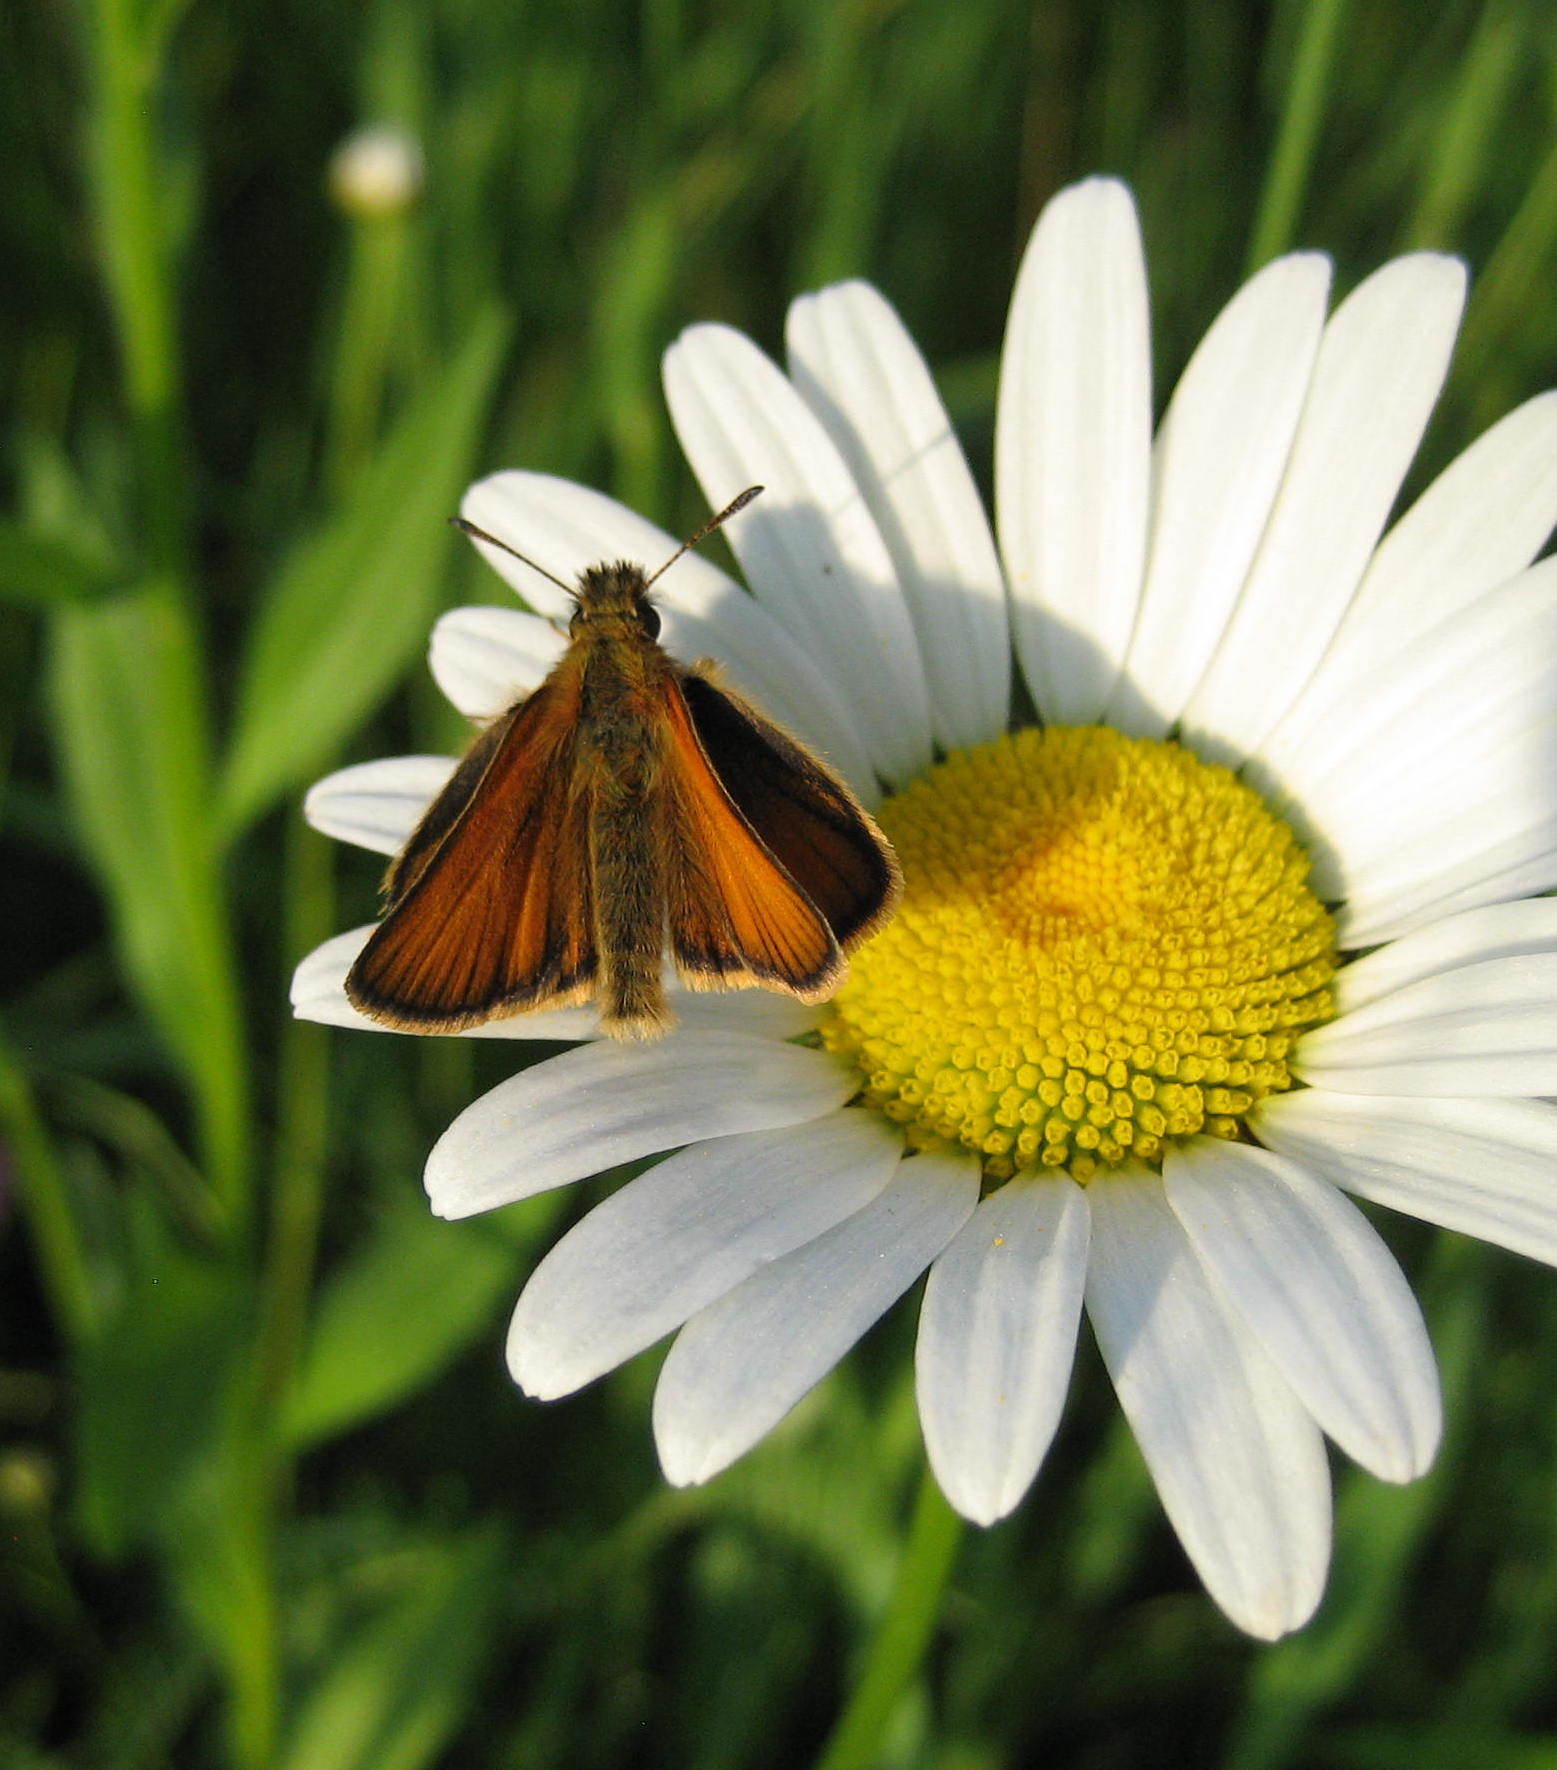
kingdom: Animalia
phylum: Arthropoda
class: Insecta
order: Lepidoptera
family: Hesperiidae
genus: Thymelicus
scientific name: Thymelicus lineola
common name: Essex skipper
